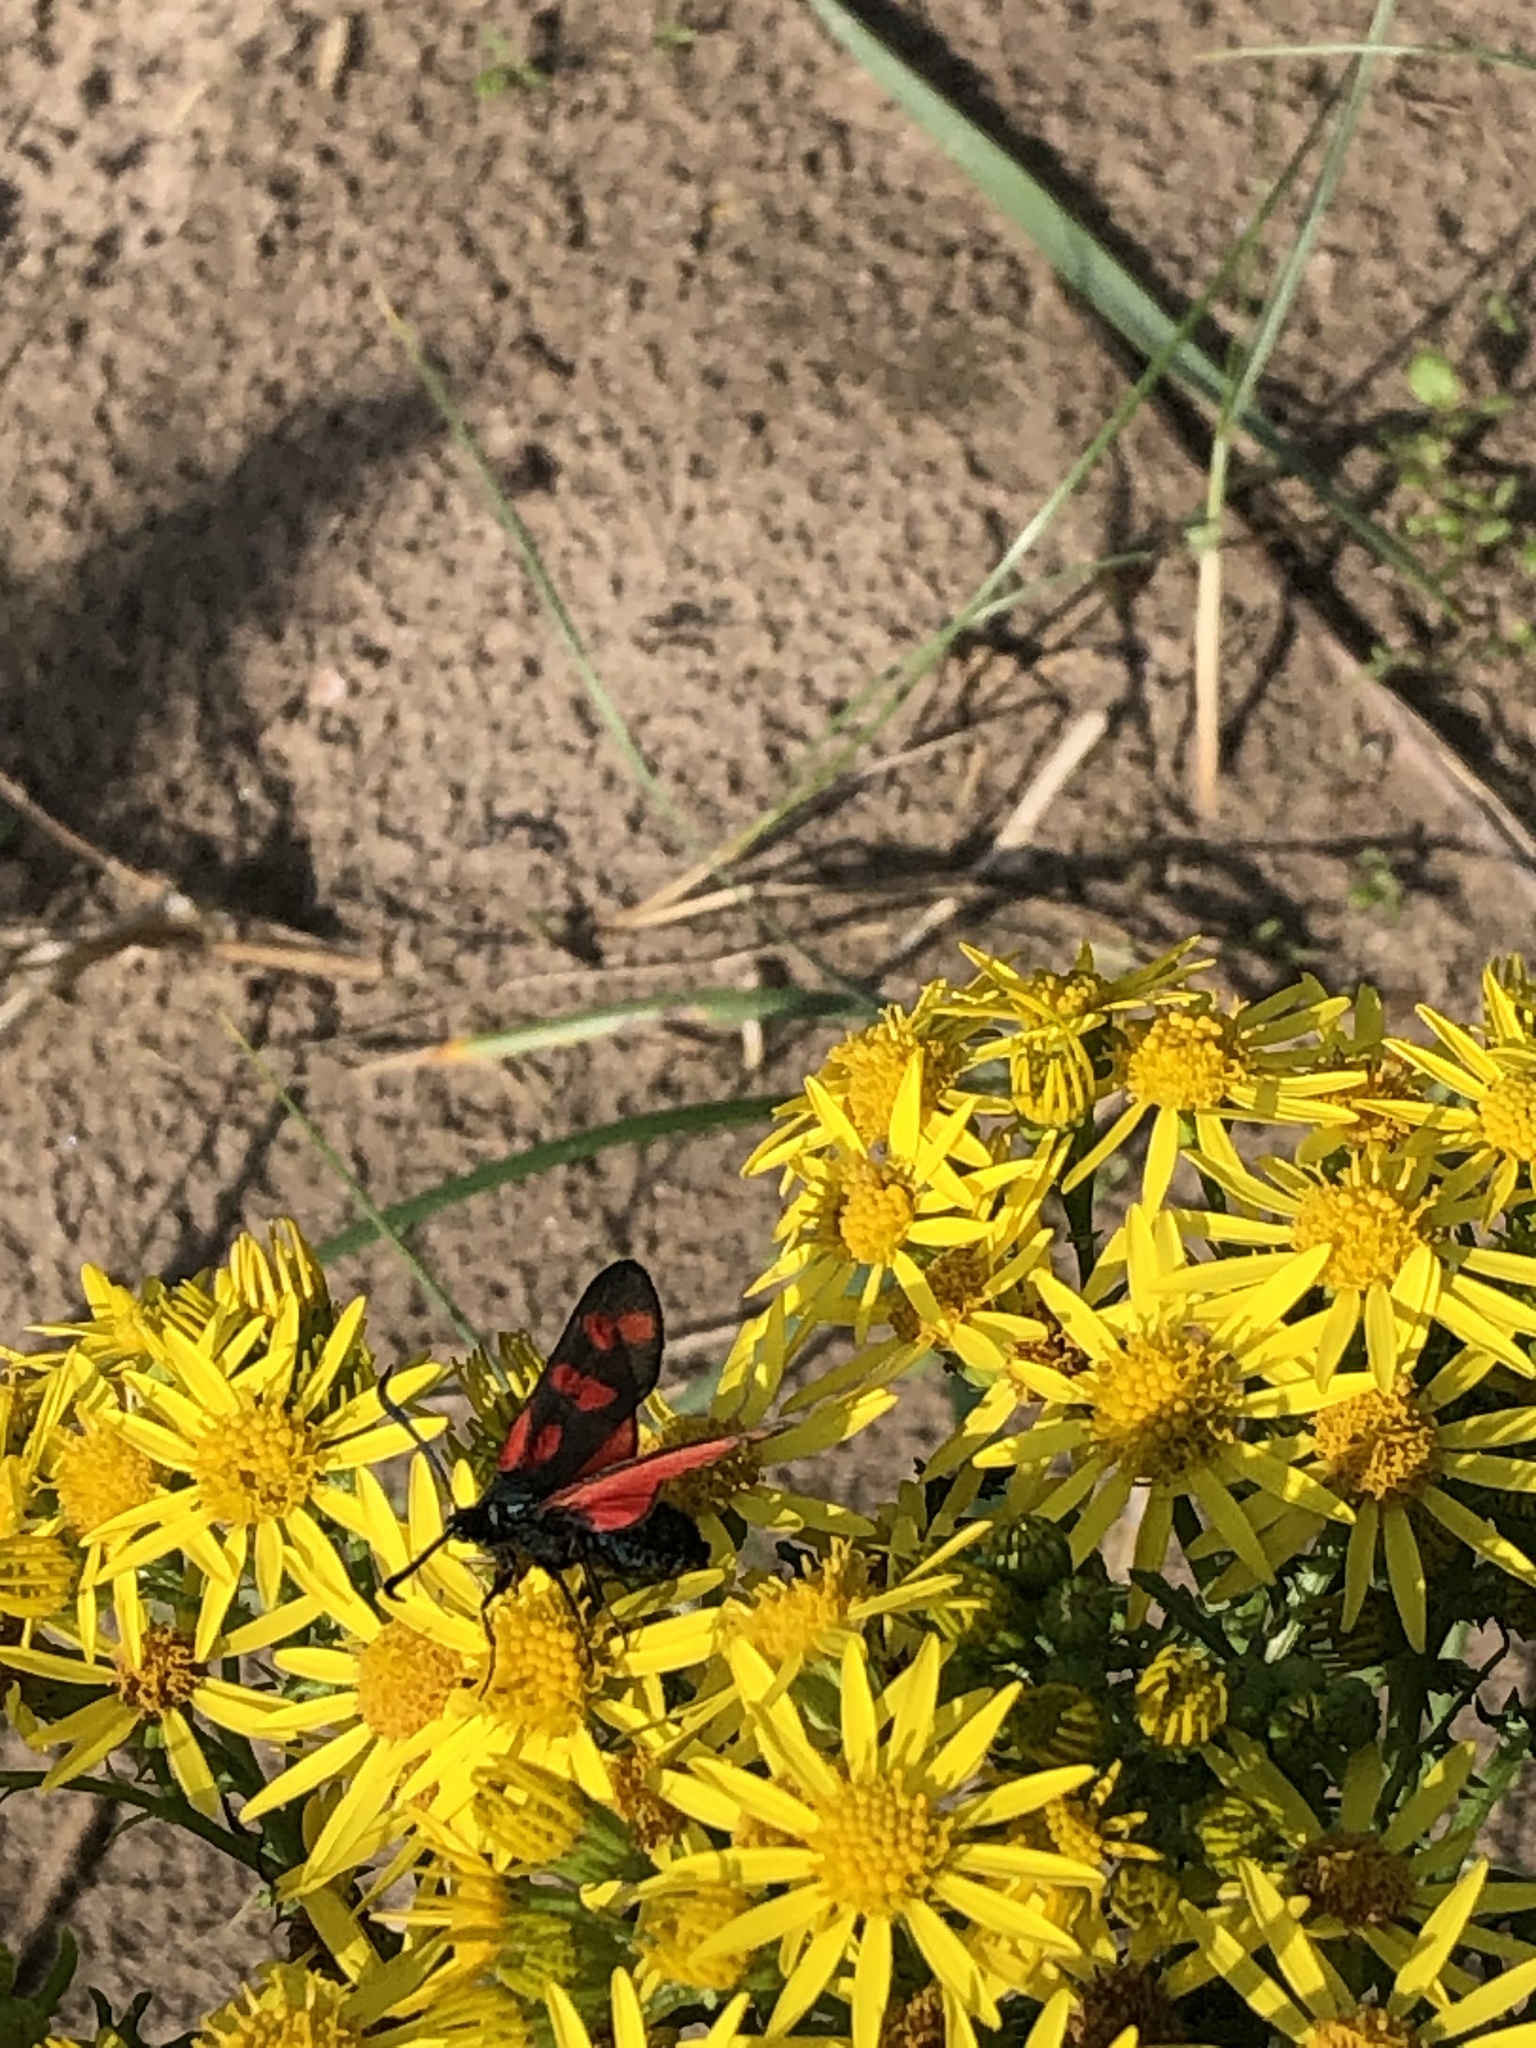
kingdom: Animalia
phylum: Arthropoda
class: Insecta
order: Lepidoptera
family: Zygaenidae
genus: Zygaena
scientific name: Zygaena filipendulae
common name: Six-spot burnet
